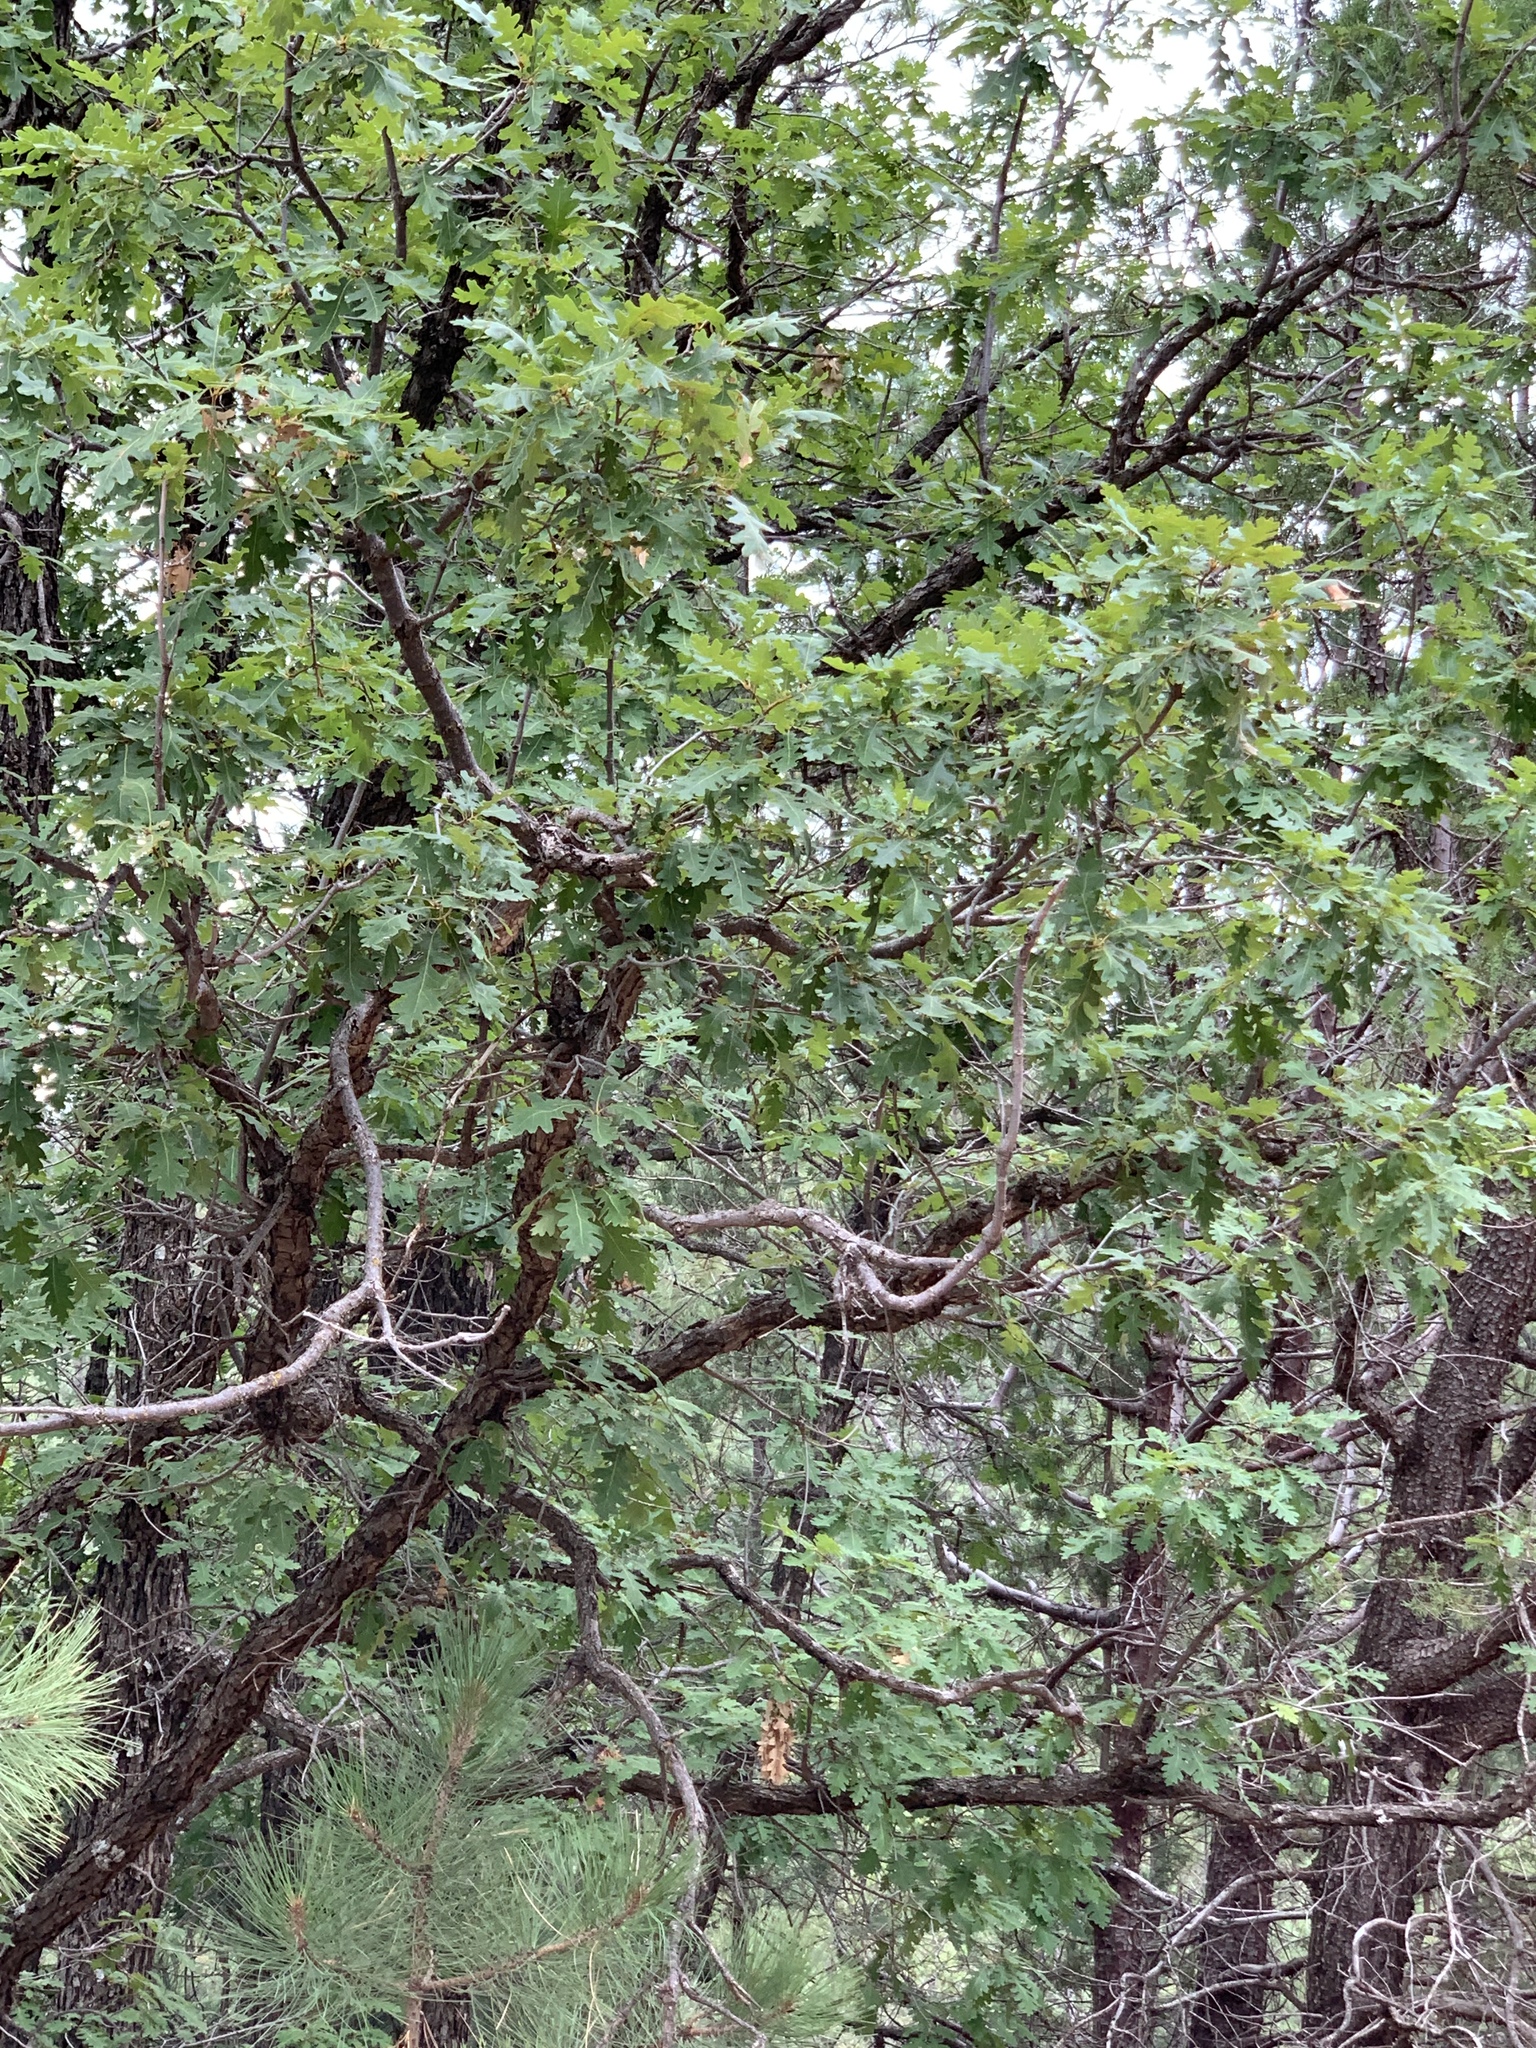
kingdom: Plantae
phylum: Tracheophyta
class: Magnoliopsida
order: Fagales
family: Fagaceae
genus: Quercus
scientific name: Quercus gambelii
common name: Gambel oak
